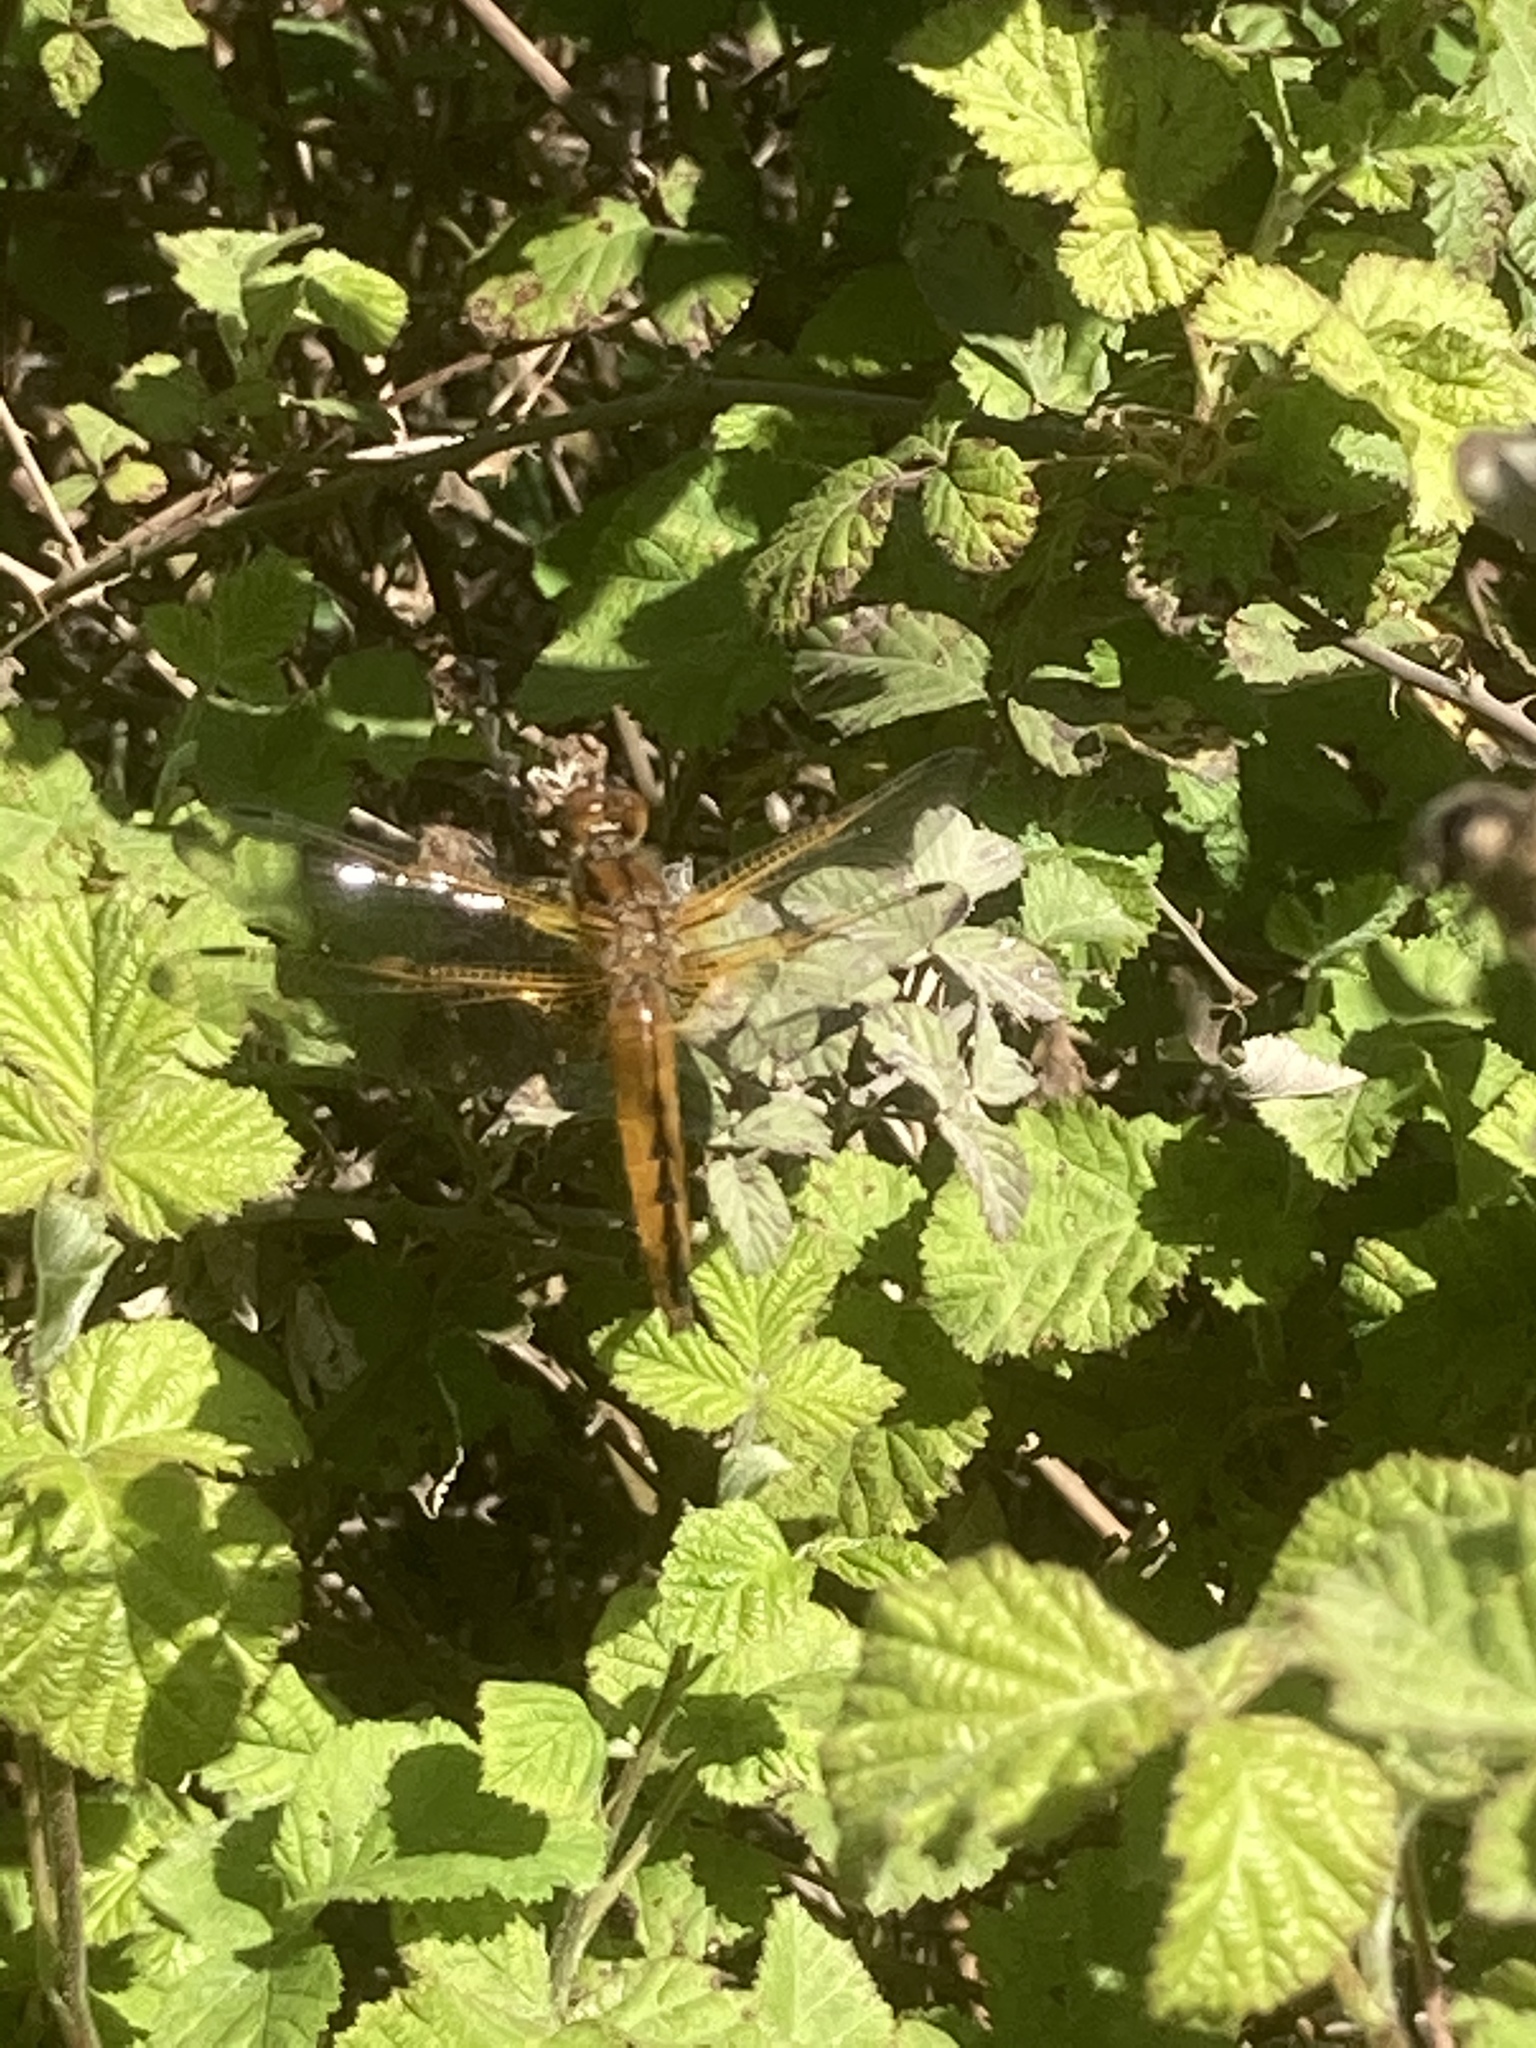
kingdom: Animalia
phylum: Arthropoda
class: Insecta
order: Odonata
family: Libellulidae
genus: Libellula
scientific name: Libellula fulva
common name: Blue chaser
